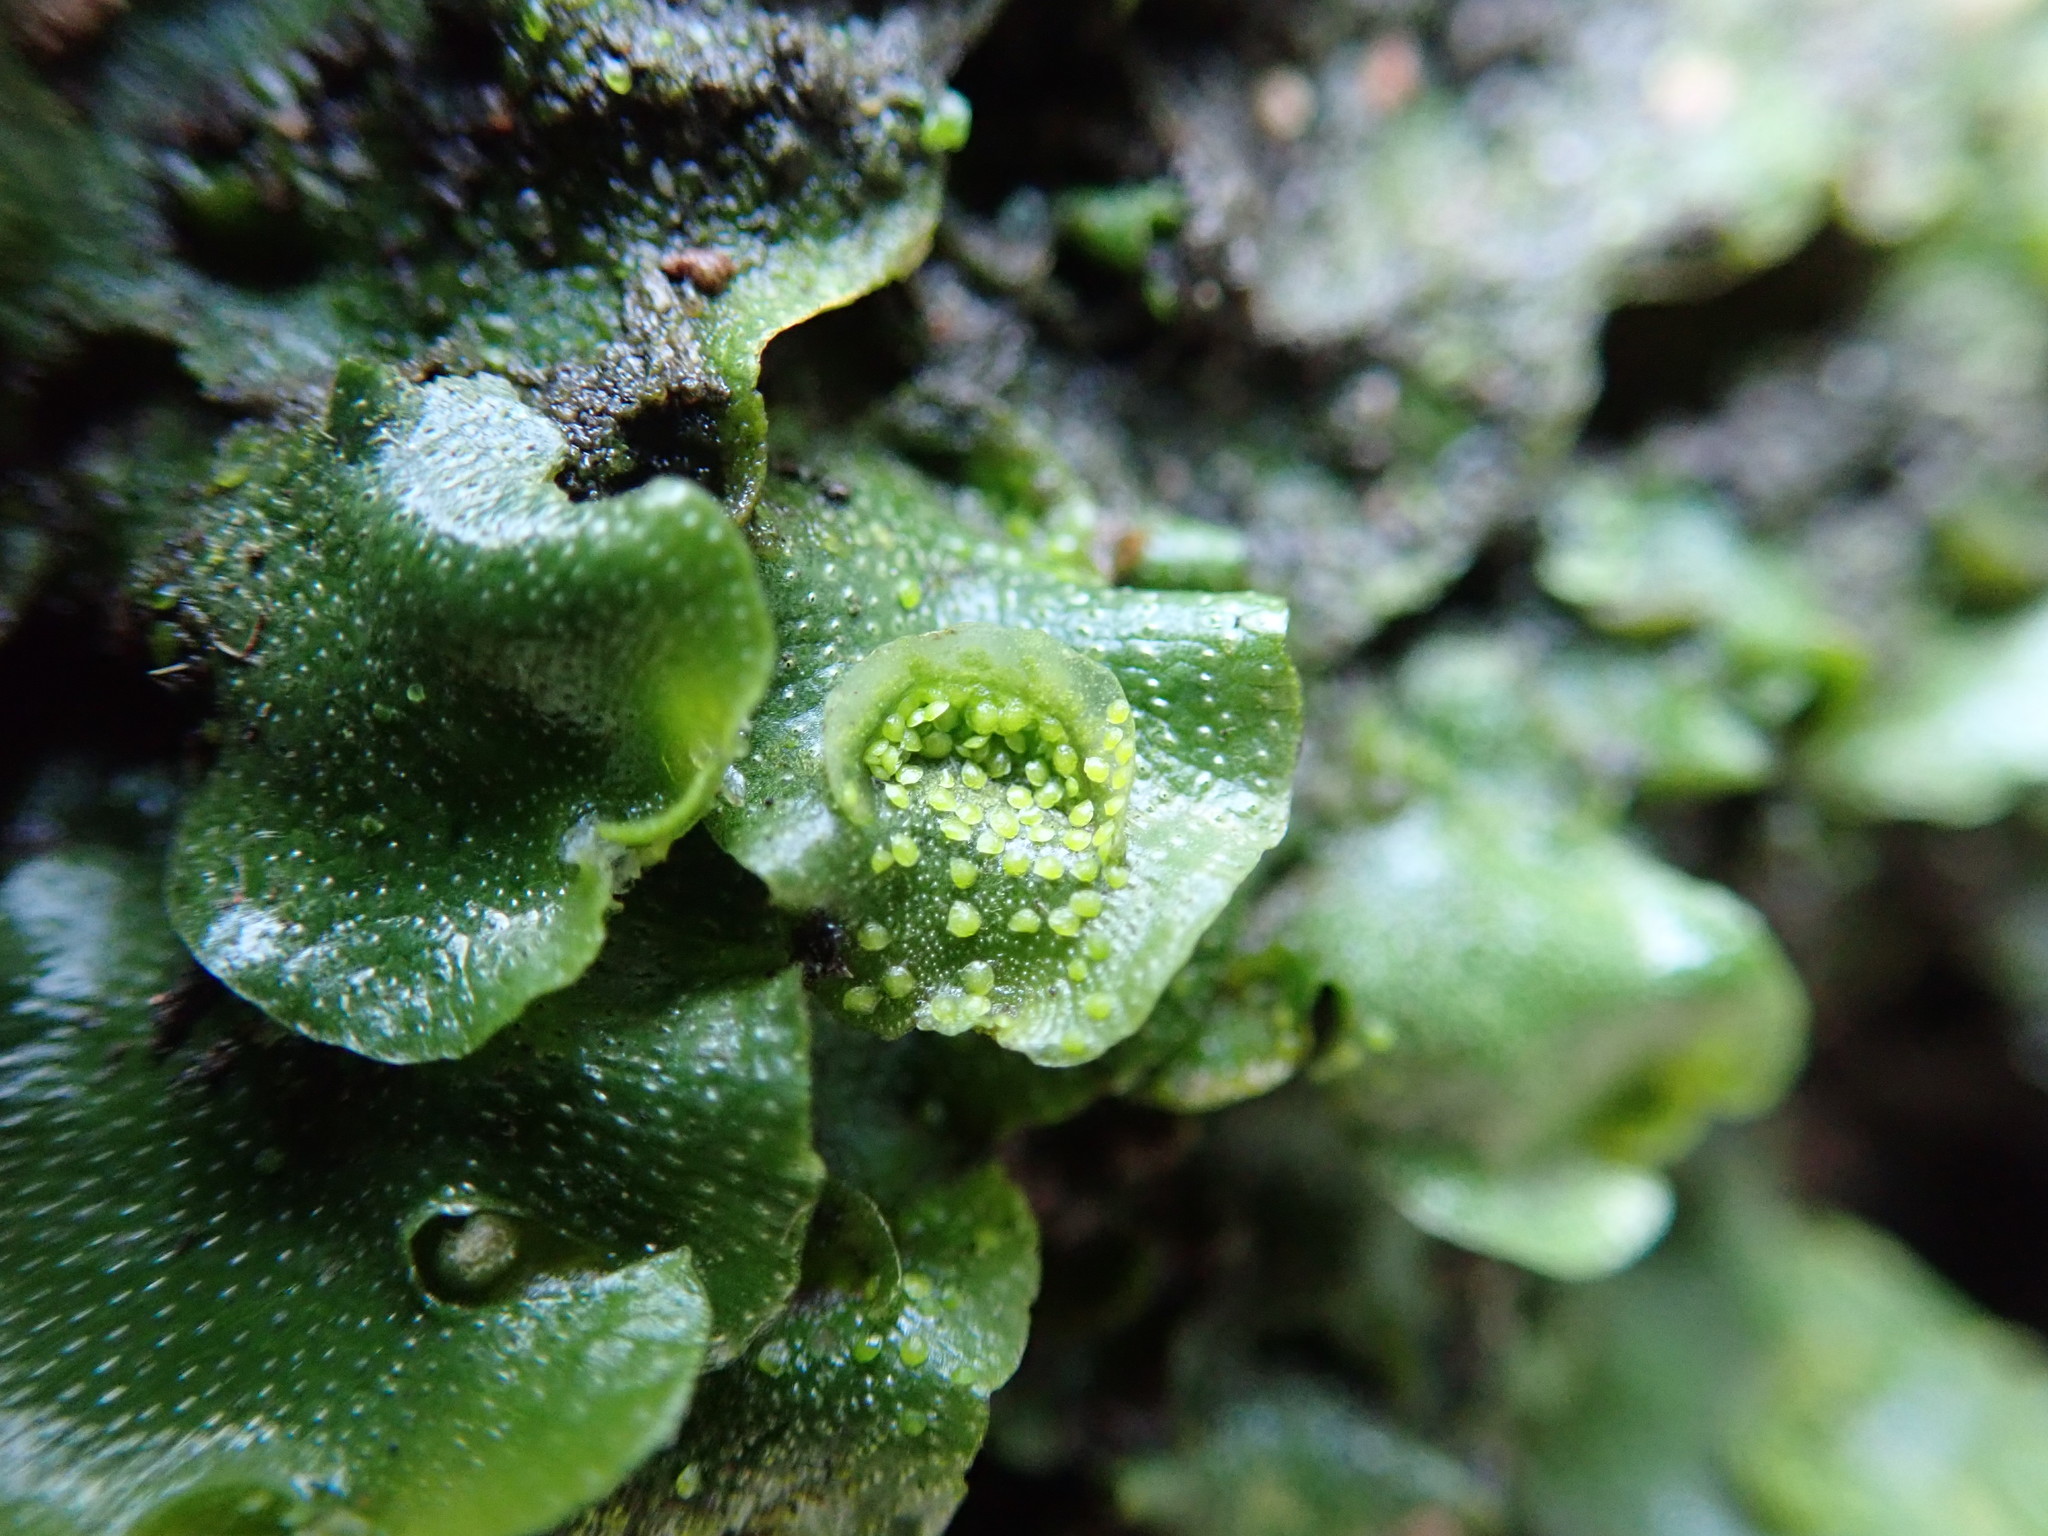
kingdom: Plantae
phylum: Marchantiophyta
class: Marchantiopsida
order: Lunulariales
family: Lunulariaceae
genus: Lunularia
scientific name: Lunularia cruciata
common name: Crescent-cup liverwort
